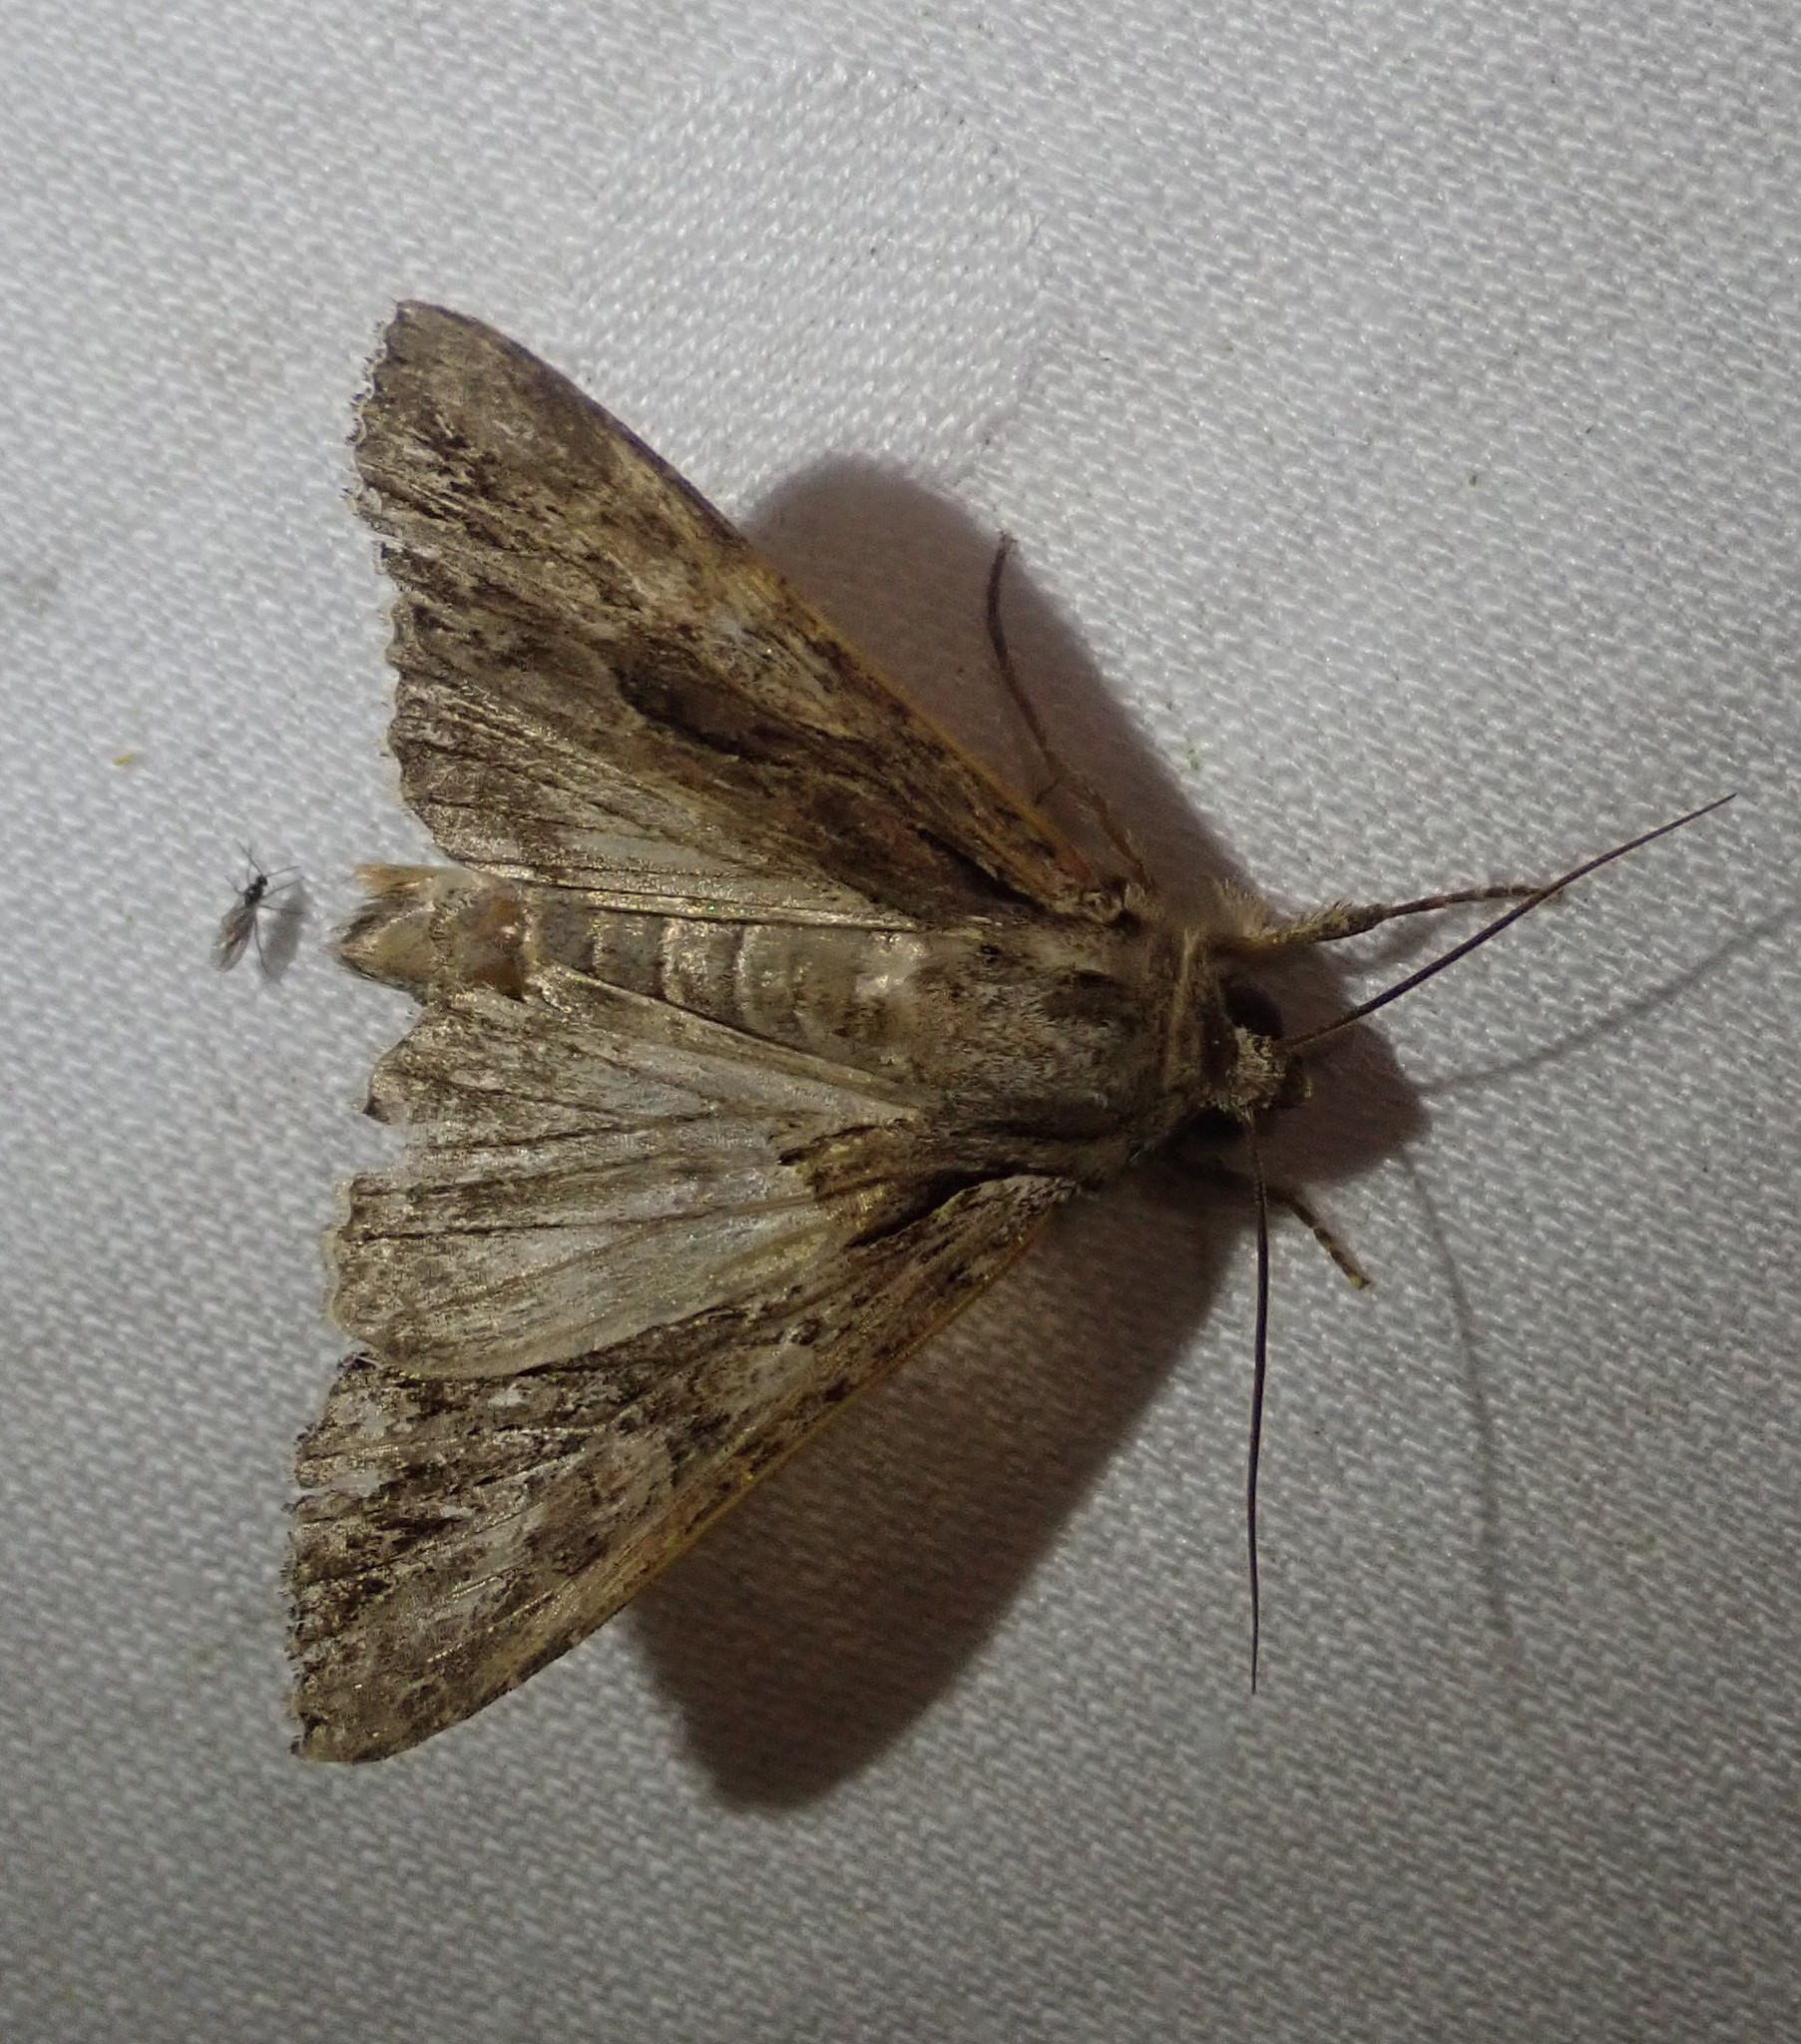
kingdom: Animalia
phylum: Arthropoda
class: Insecta
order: Lepidoptera
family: Noctuidae
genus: Apamea
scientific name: Apamea monoglypha
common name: Dark arches
